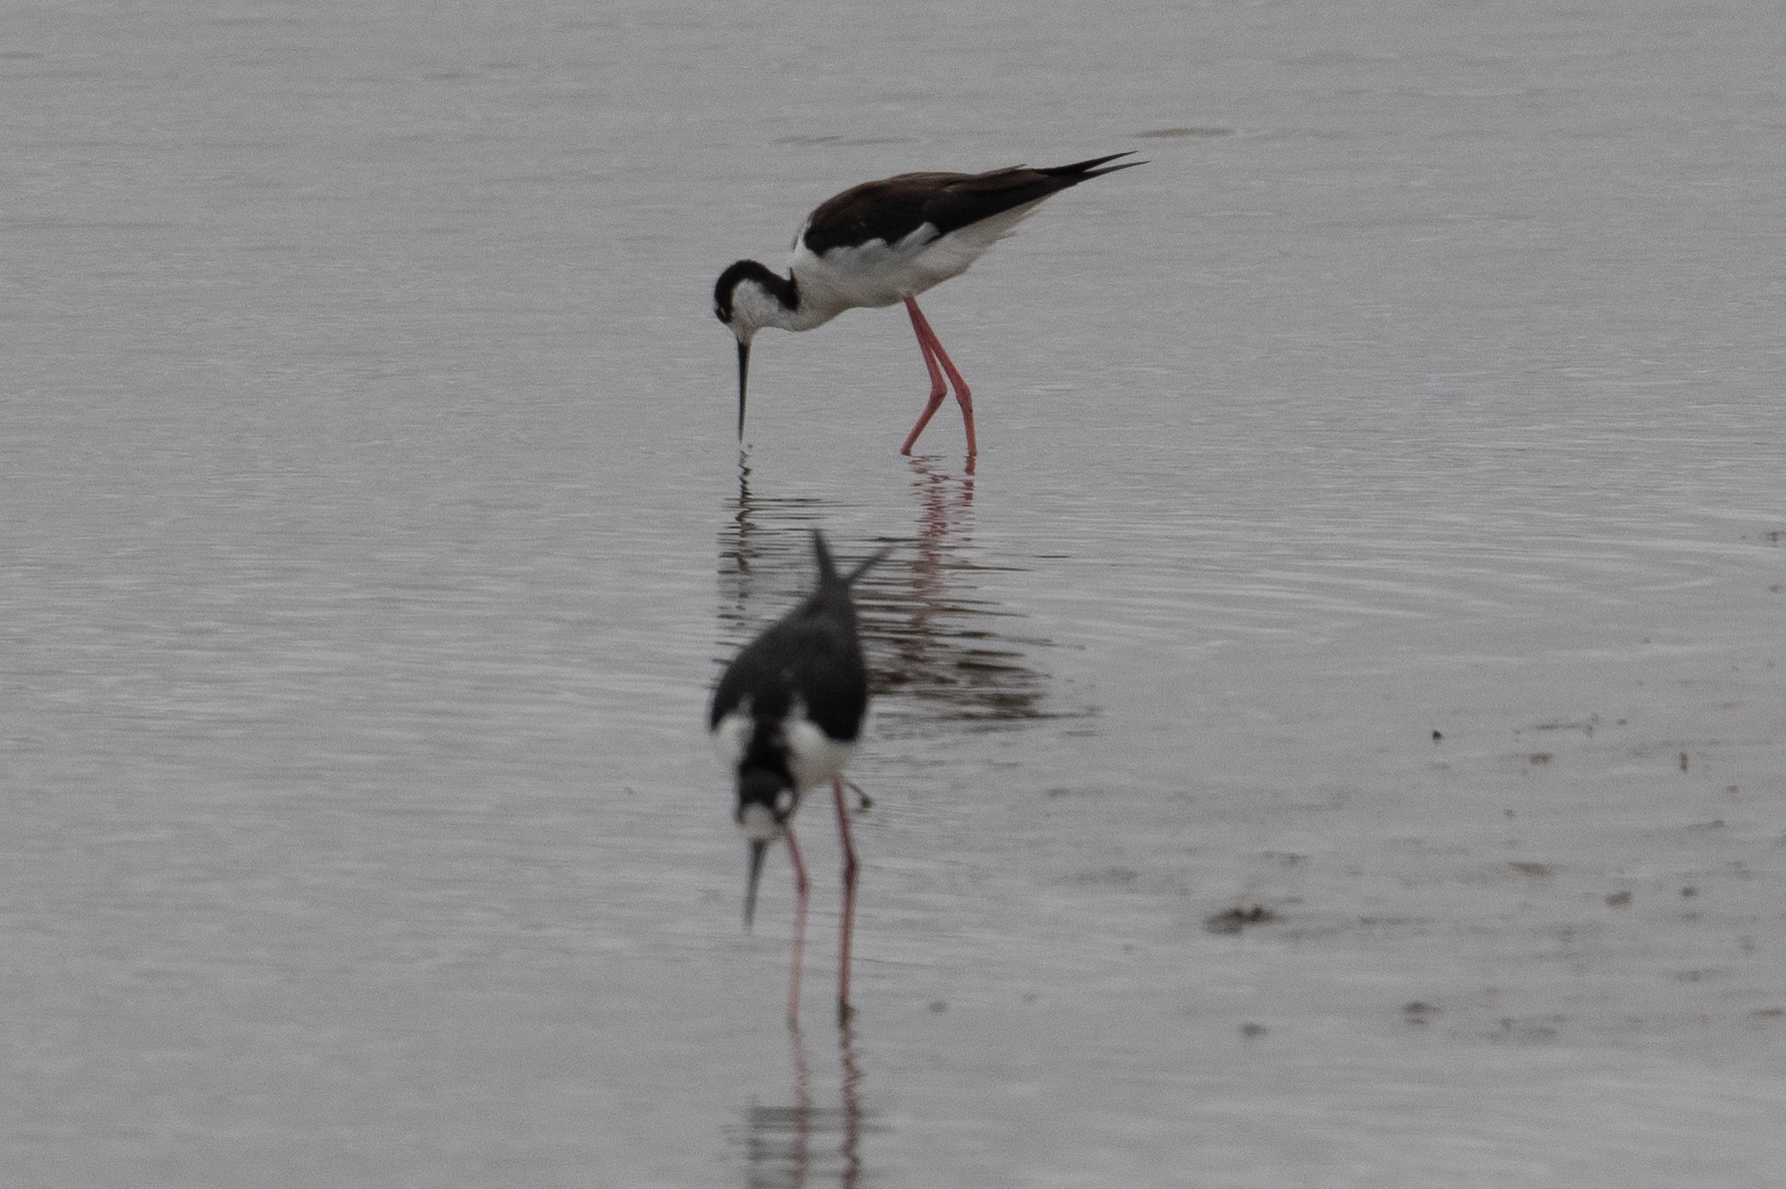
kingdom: Animalia
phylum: Chordata
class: Aves
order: Charadriiformes
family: Recurvirostridae
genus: Himantopus
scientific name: Himantopus mexicanus
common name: Black-necked stilt
